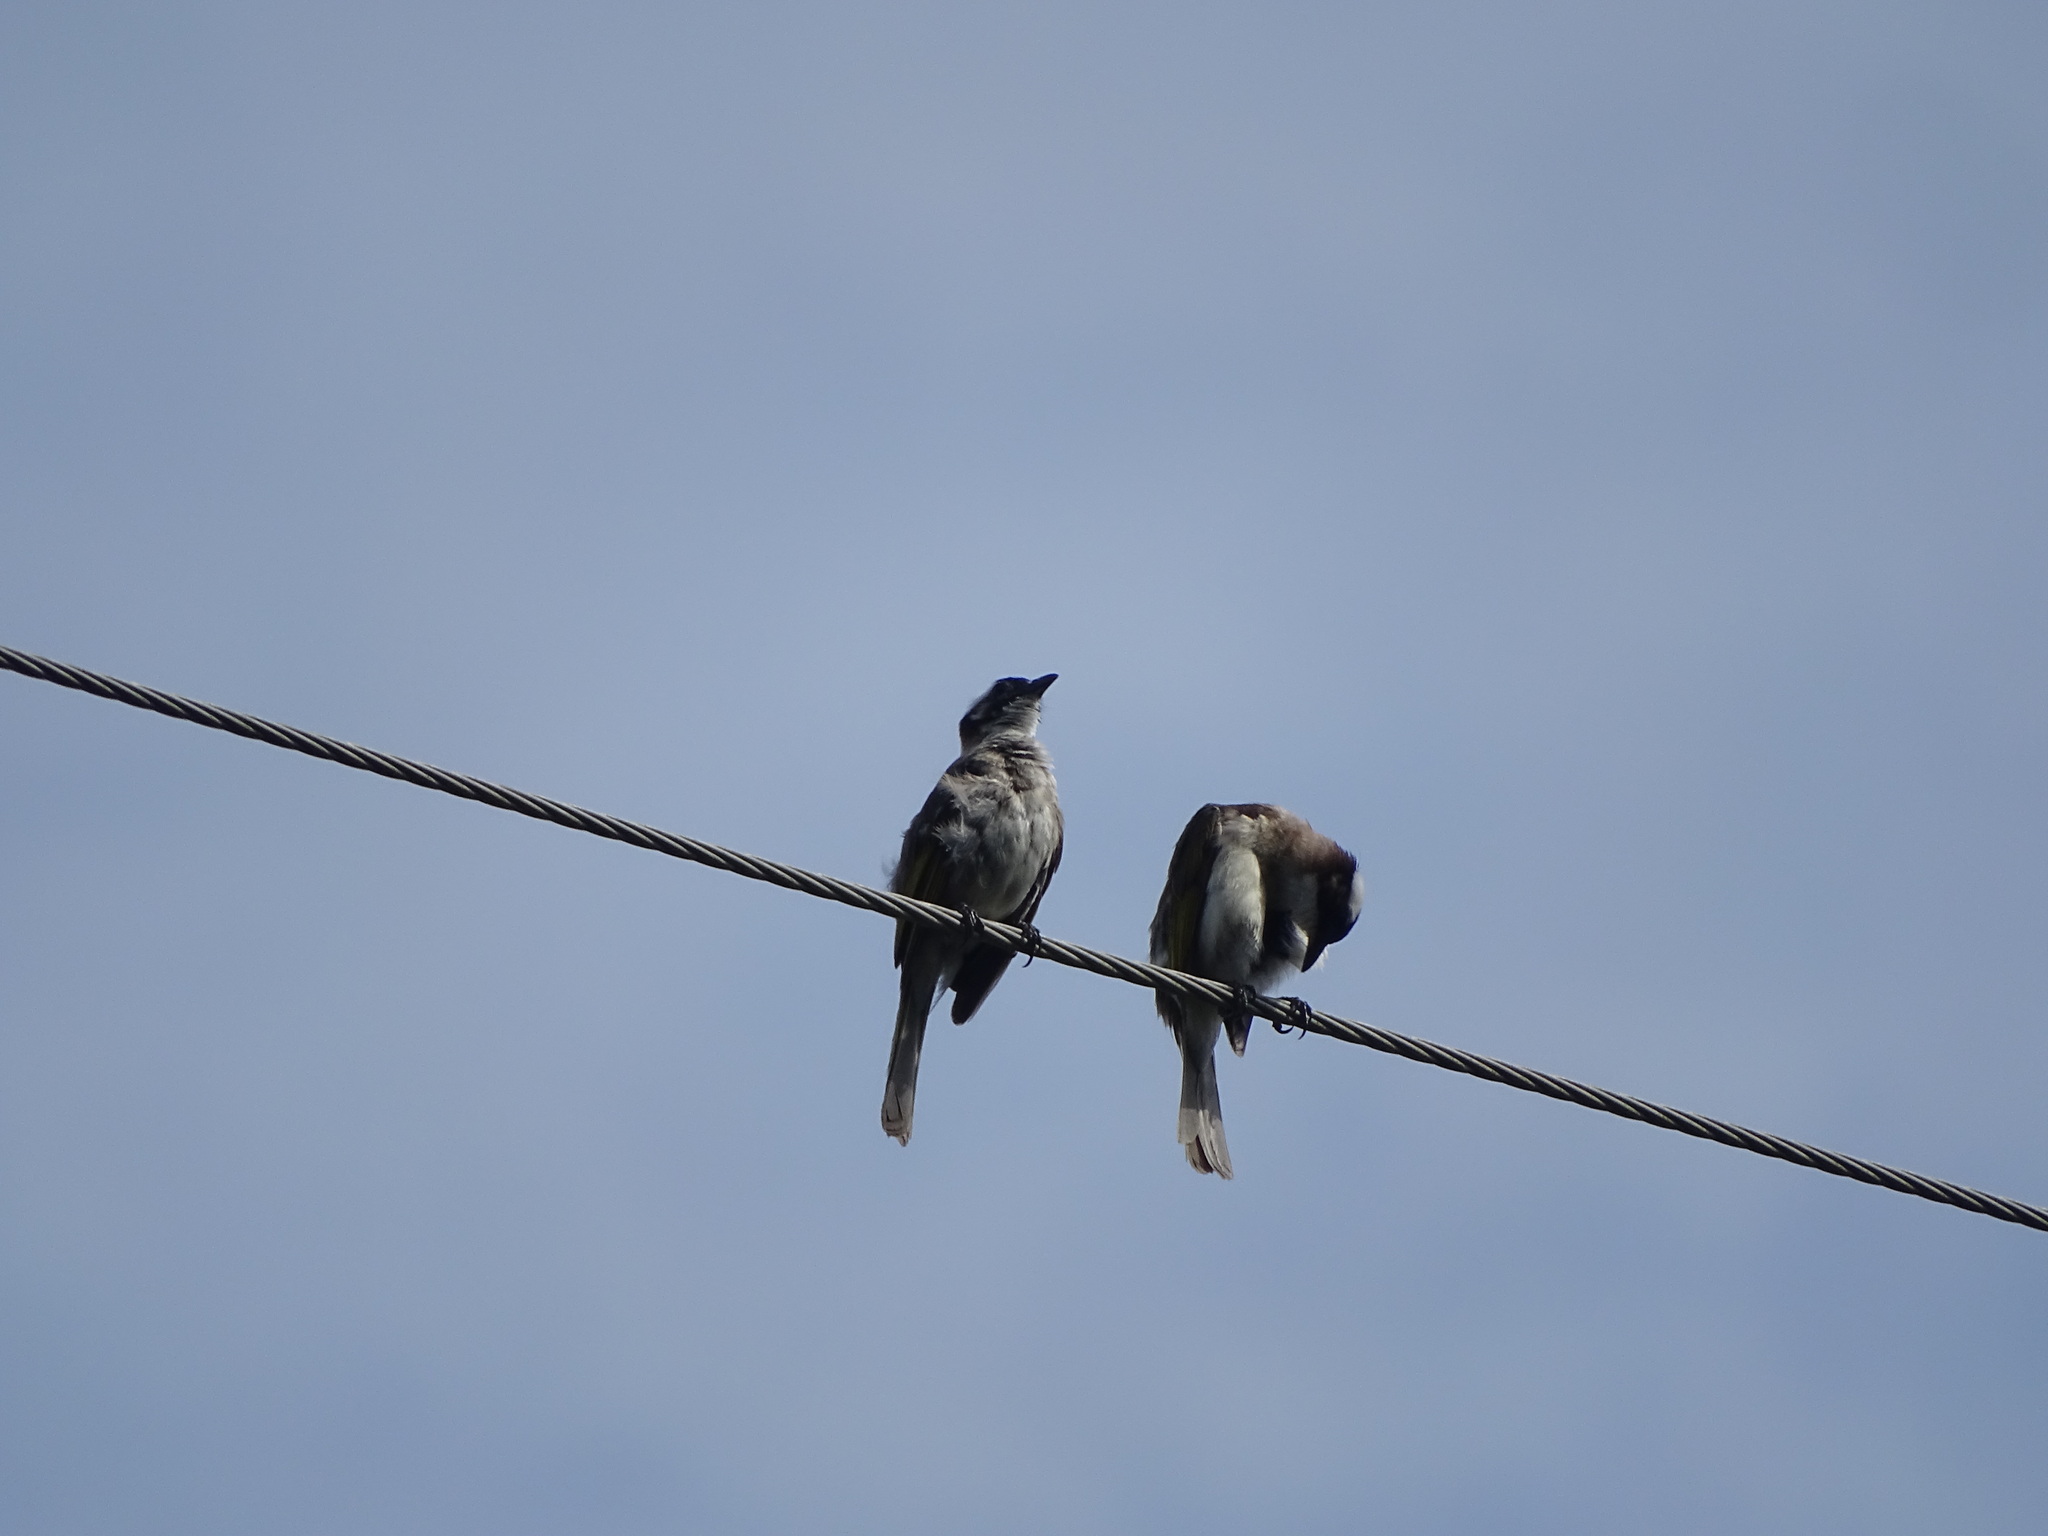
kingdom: Animalia
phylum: Chordata
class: Aves
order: Passeriformes
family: Pycnonotidae
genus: Pycnonotus
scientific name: Pycnonotus sinensis
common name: Light-vented bulbul
